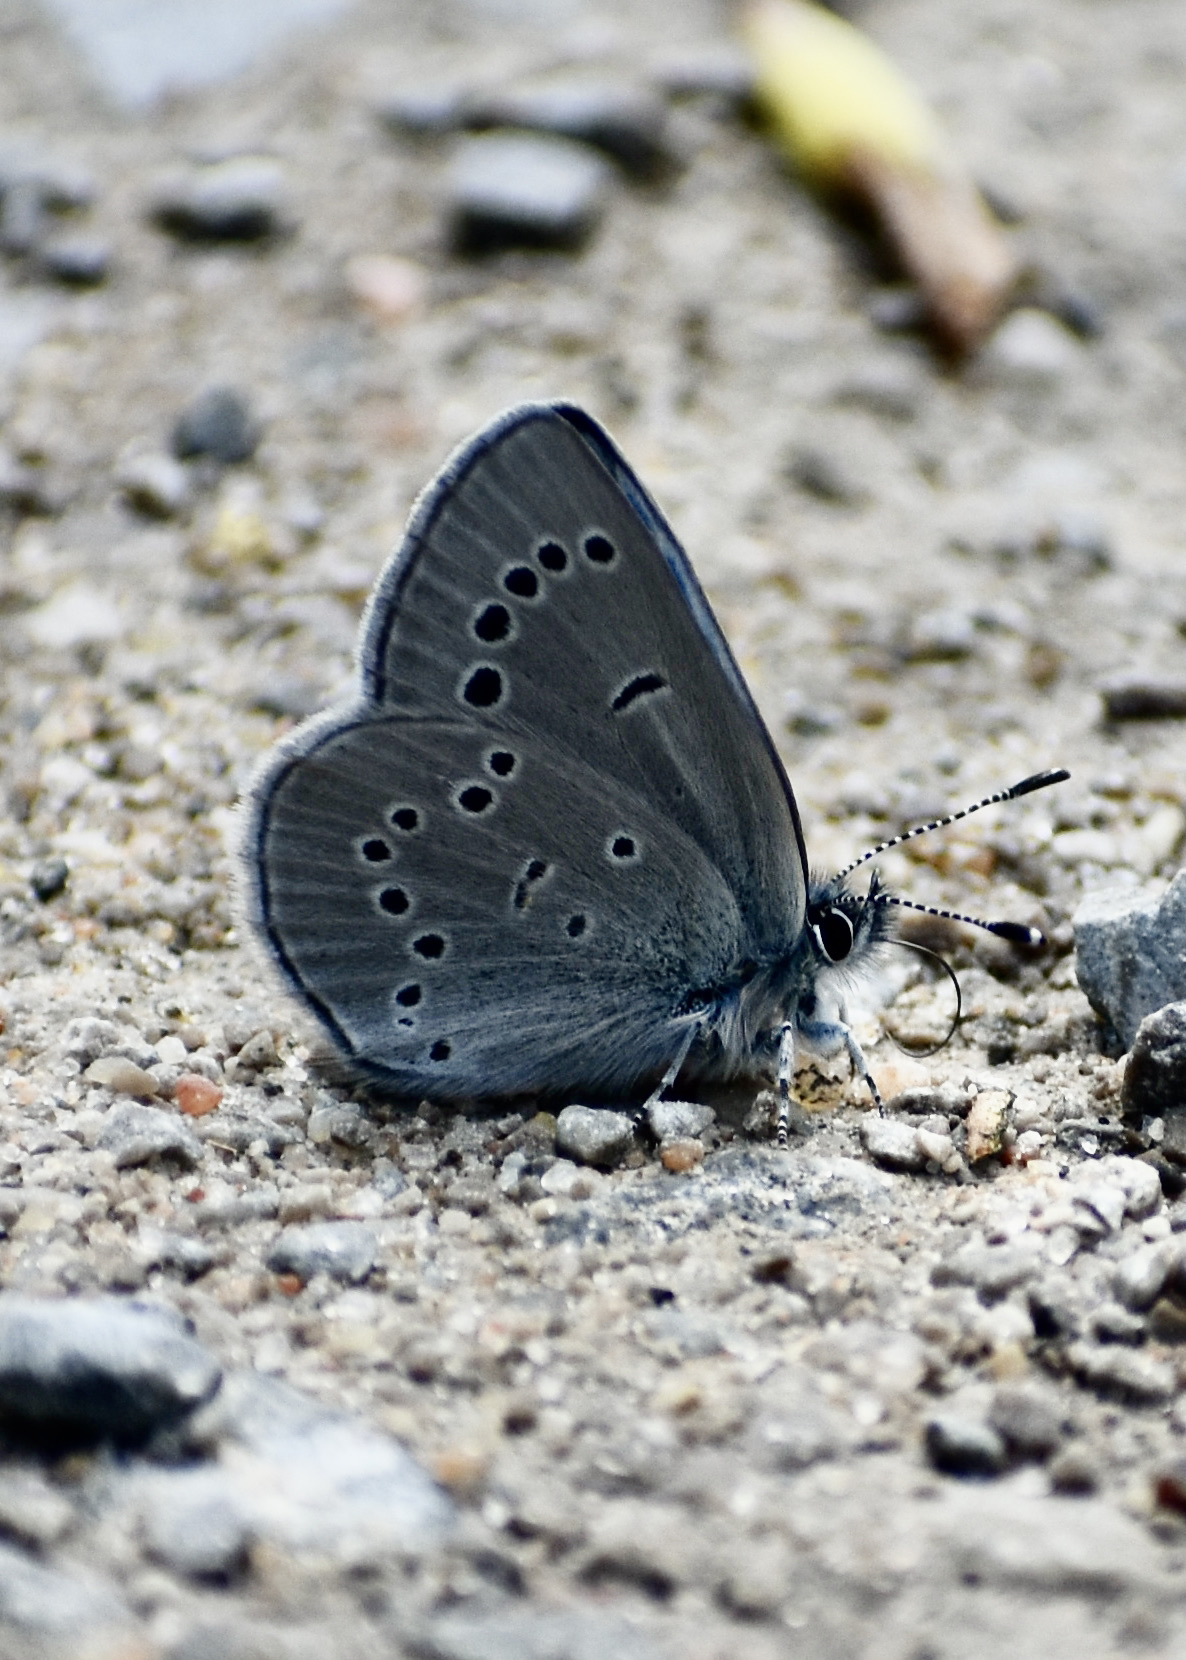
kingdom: Animalia
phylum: Arthropoda
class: Insecta
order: Lepidoptera
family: Lycaenidae
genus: Glaucopsyche
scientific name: Glaucopsyche lygdamus
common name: Silvery blue
